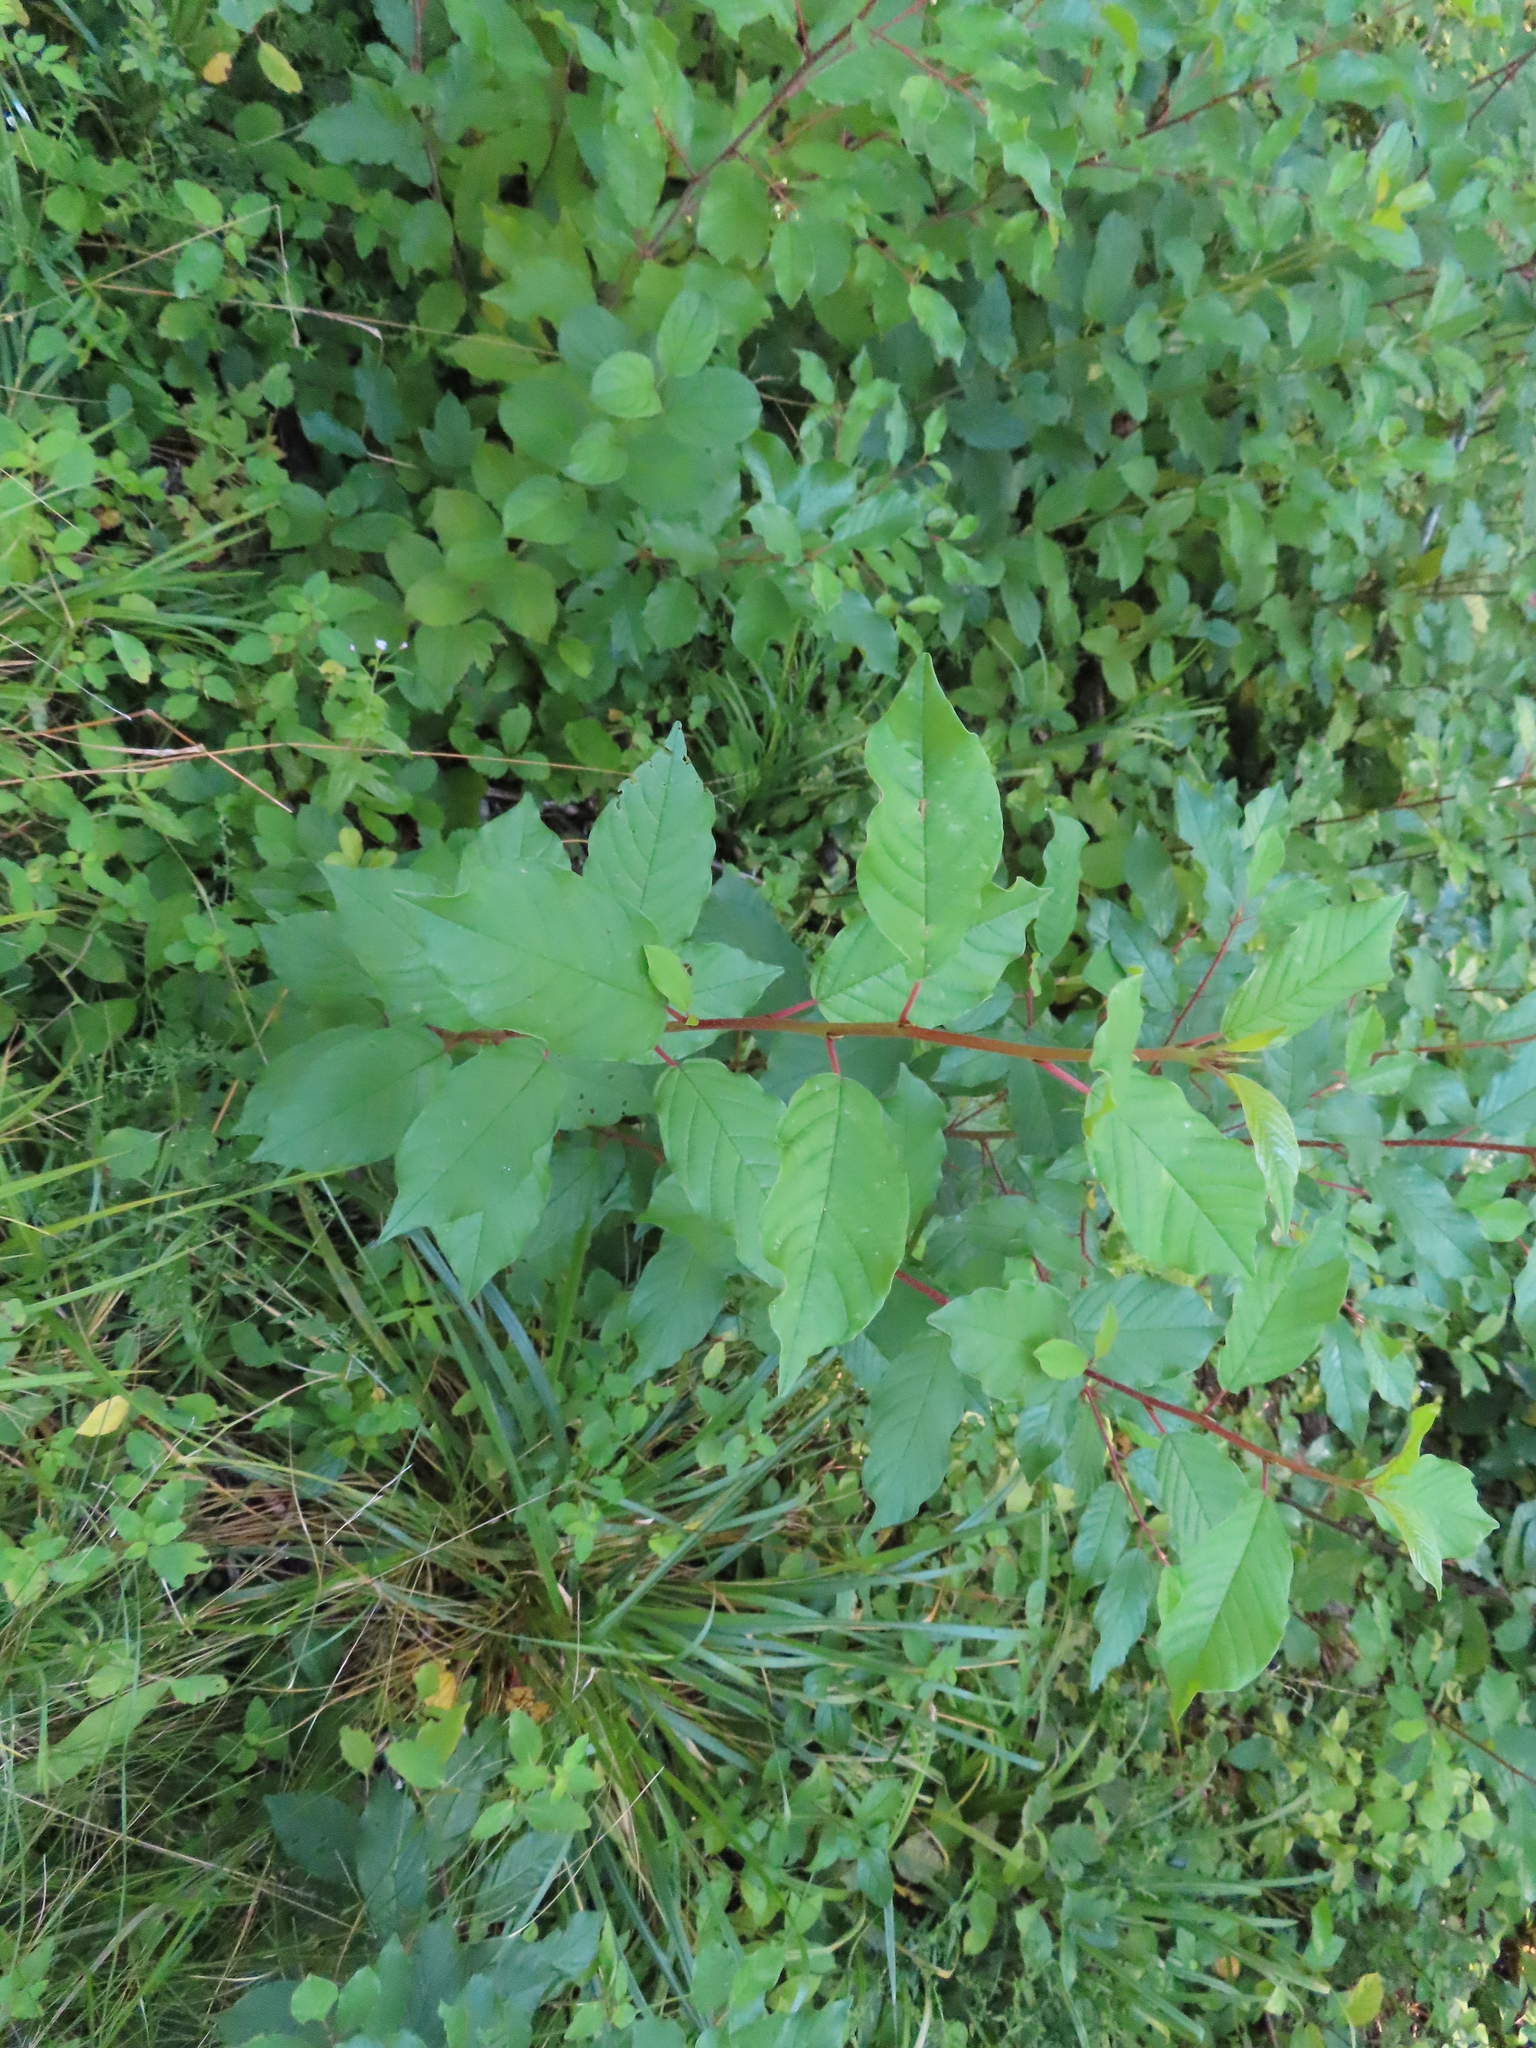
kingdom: Plantae
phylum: Tracheophyta
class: Magnoliopsida
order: Rosales
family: Rhamnaceae
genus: Frangula
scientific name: Frangula alnus
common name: Alder buckthorn
